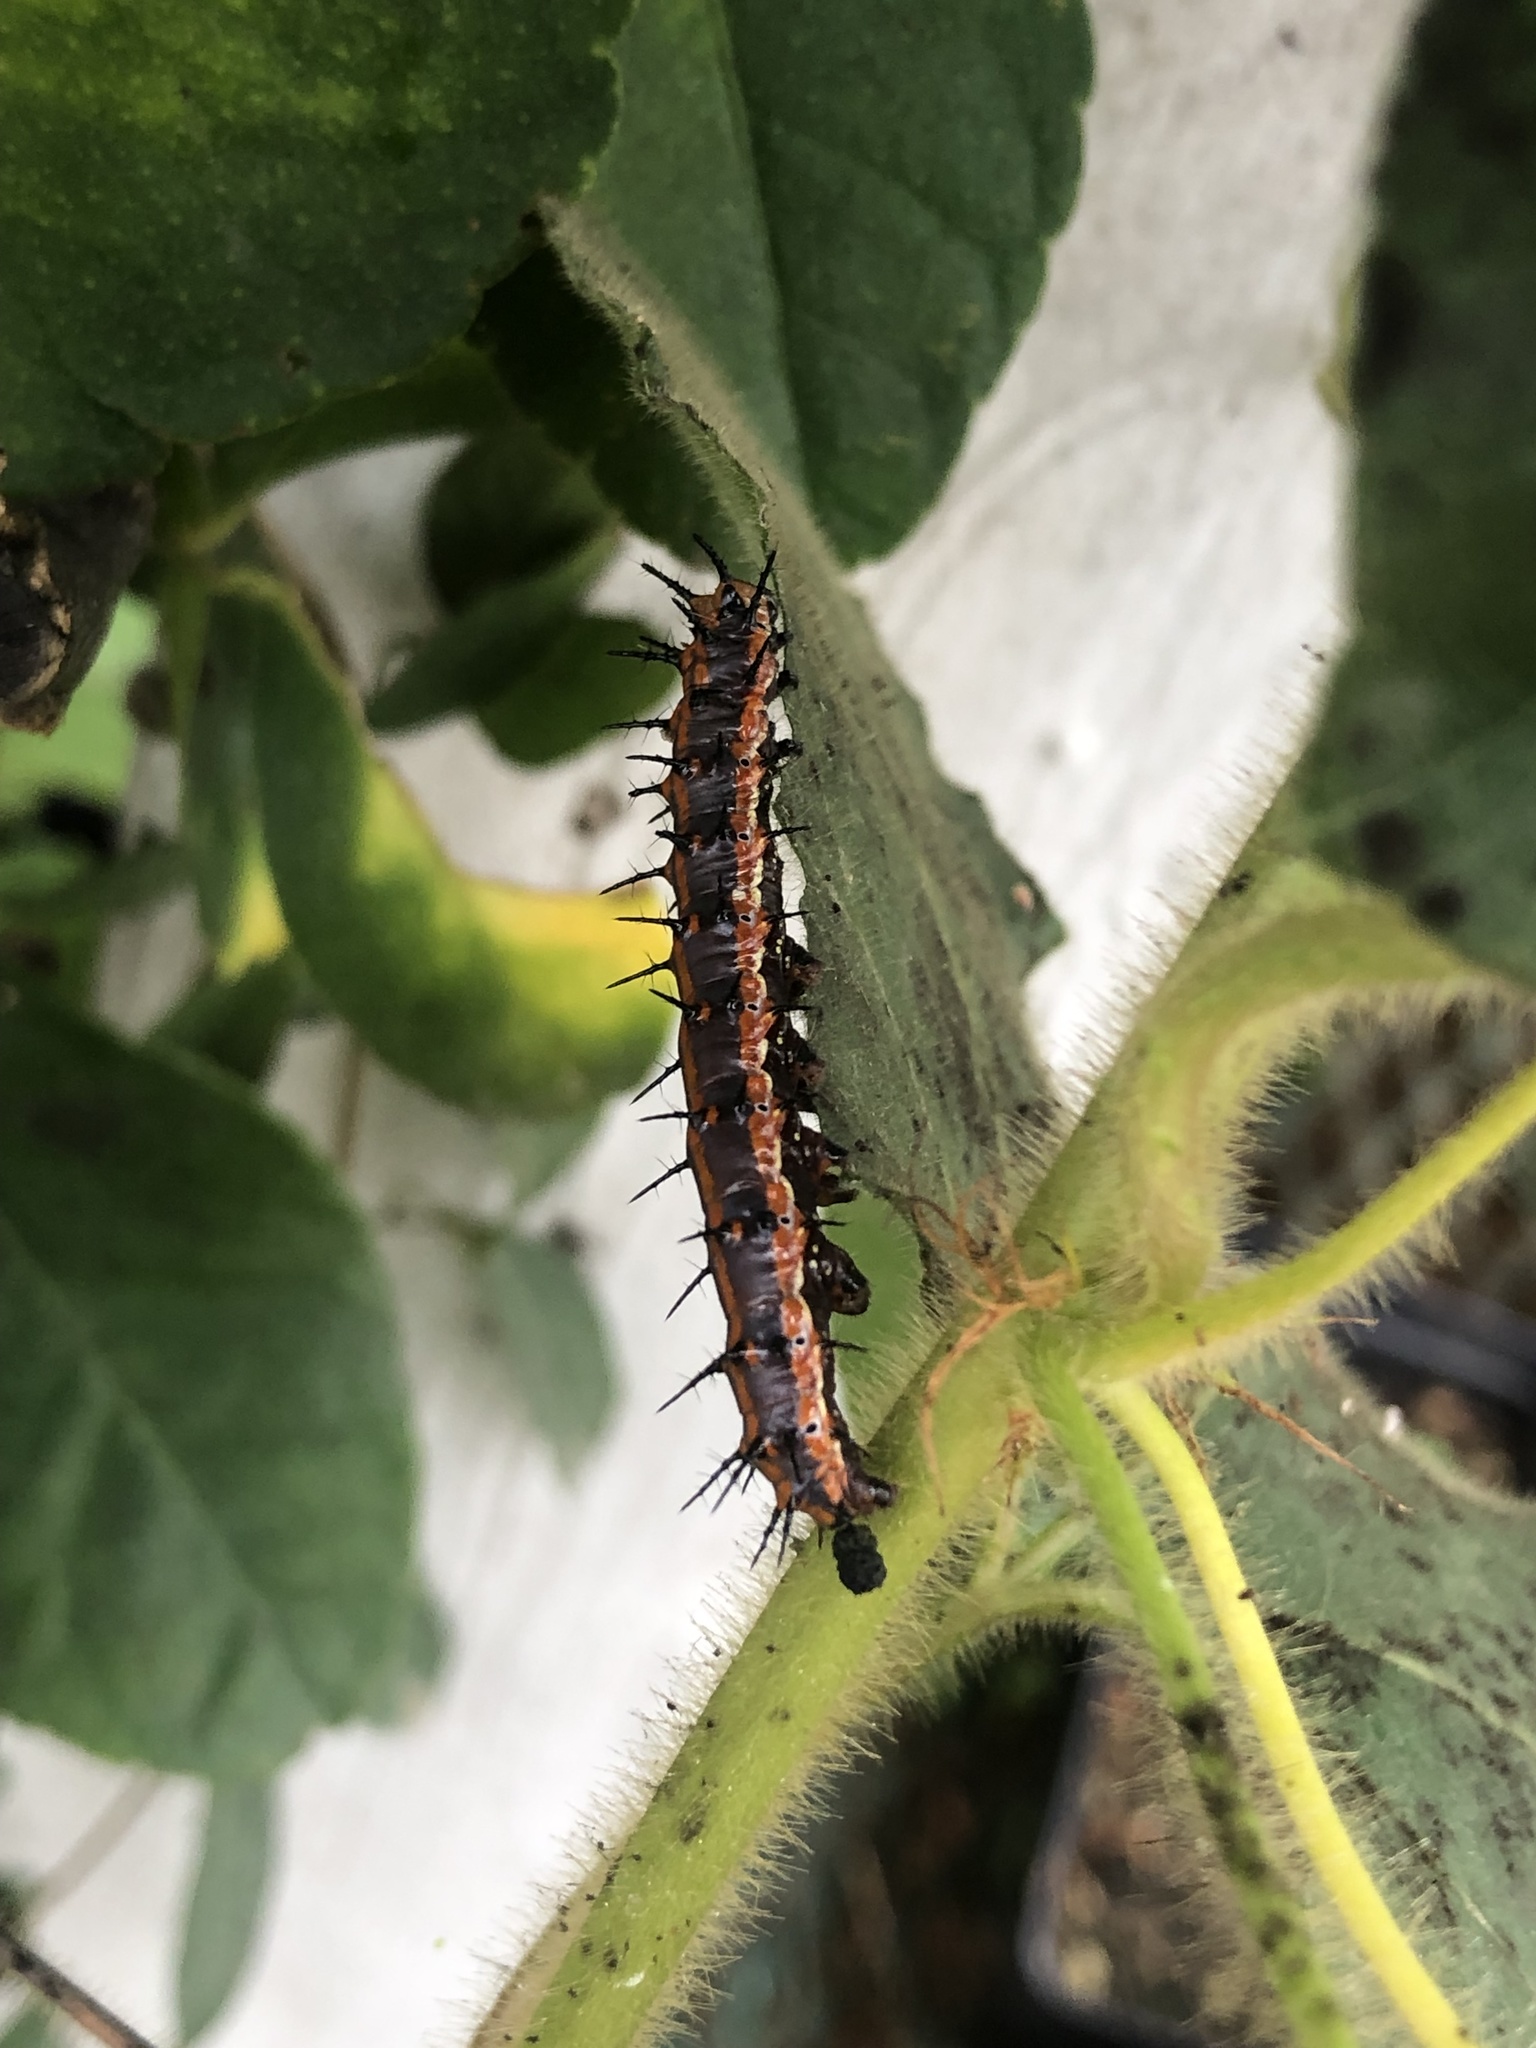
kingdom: Animalia
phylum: Arthropoda
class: Insecta
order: Lepidoptera
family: Nymphalidae
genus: Dione
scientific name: Dione vanillae
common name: Gulf fritillary
